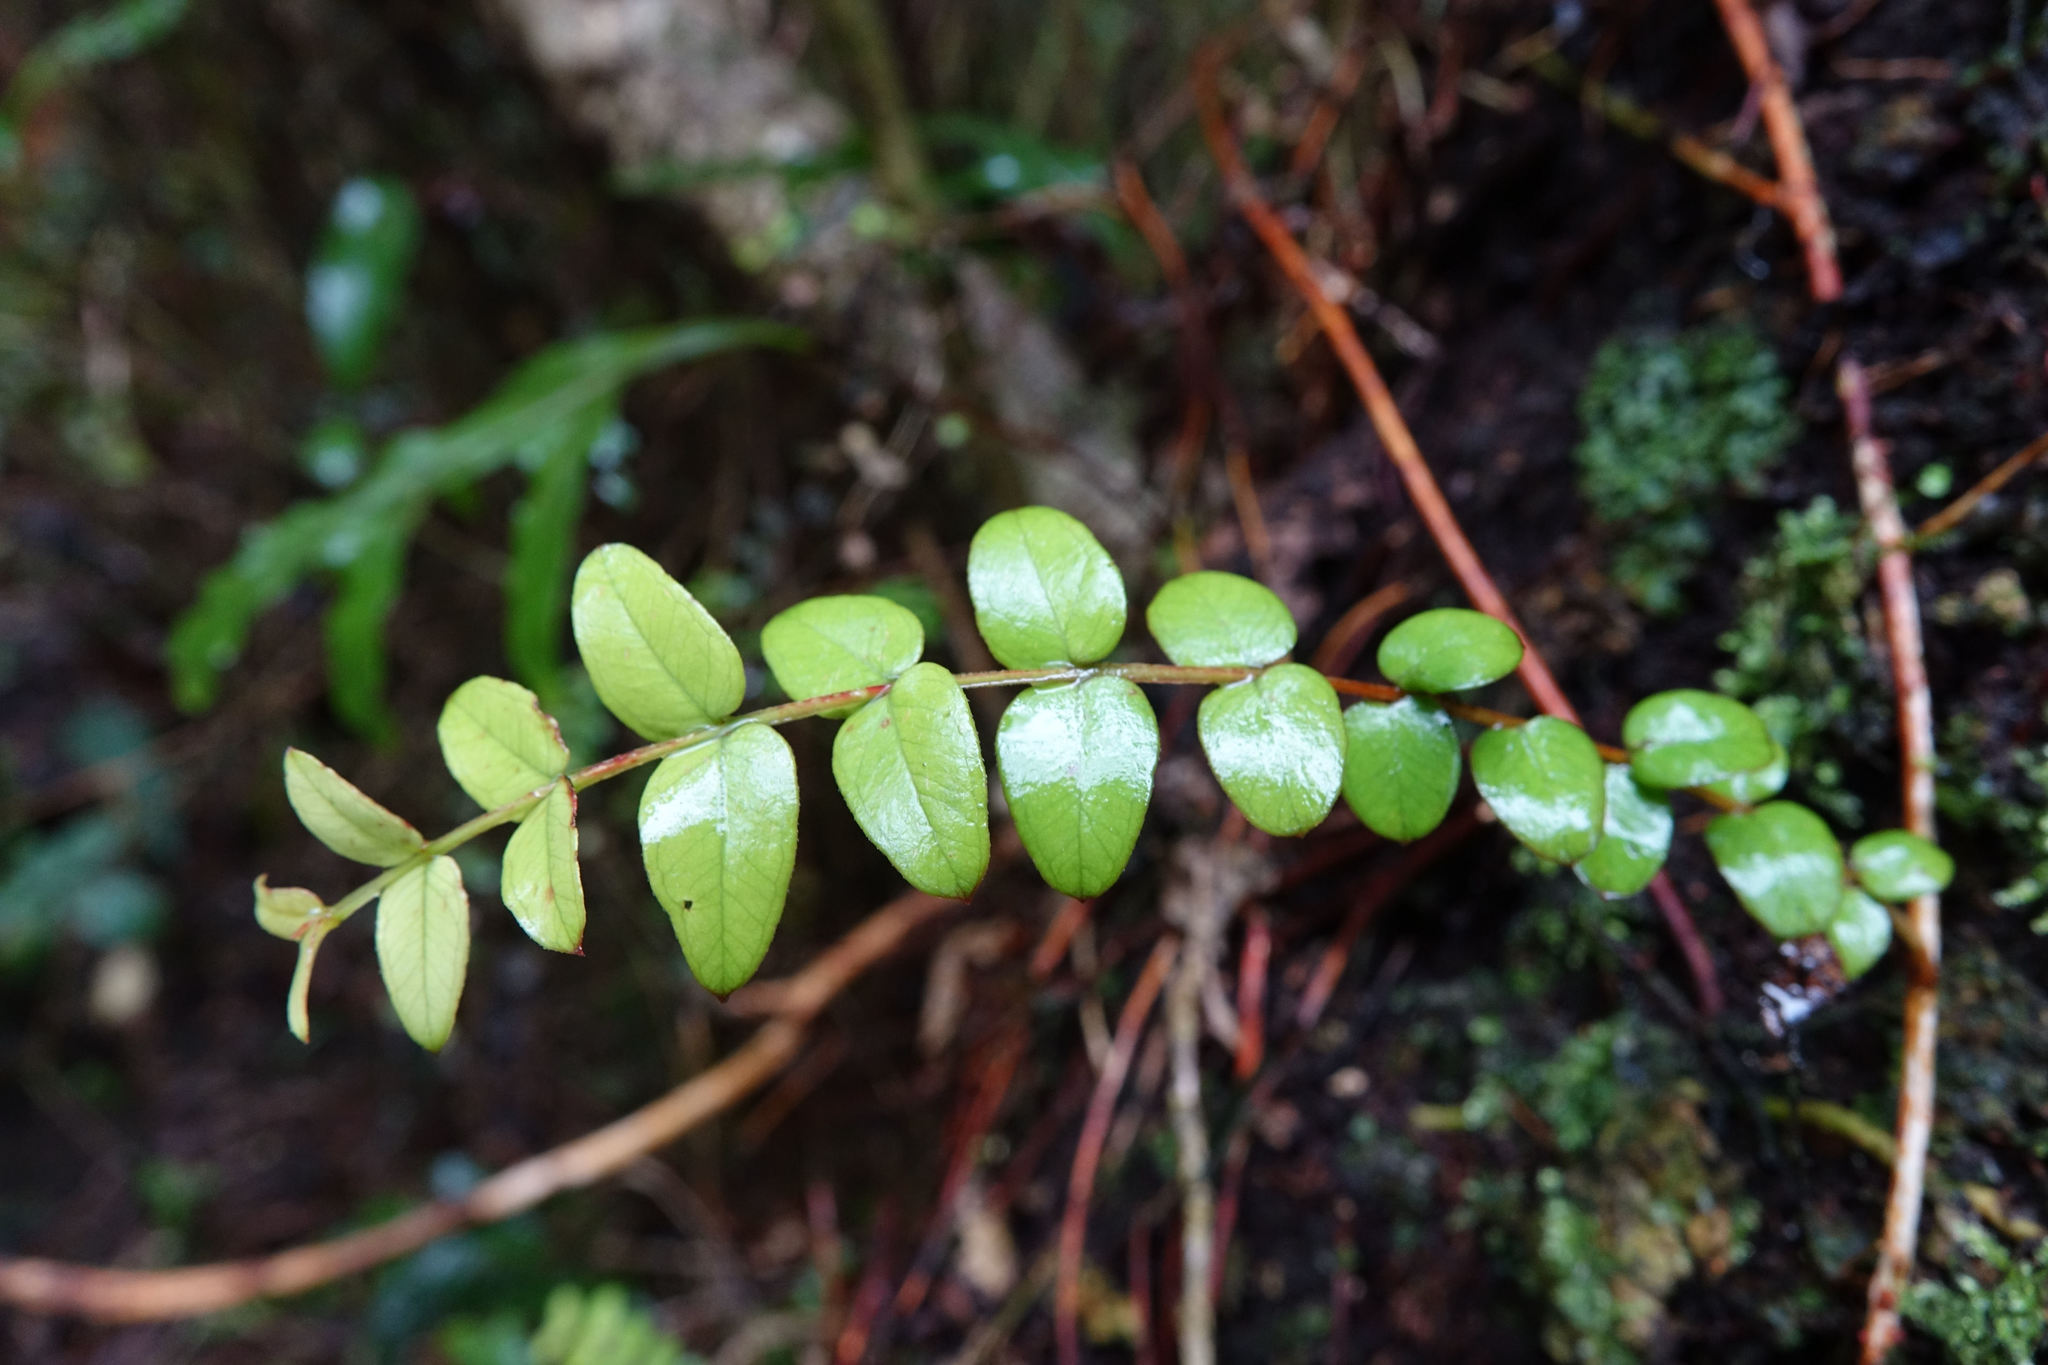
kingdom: Plantae
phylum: Tracheophyta
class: Magnoliopsida
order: Myrtales
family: Myrtaceae
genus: Metrosideros
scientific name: Metrosideros diffusa
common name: Small ratavine
